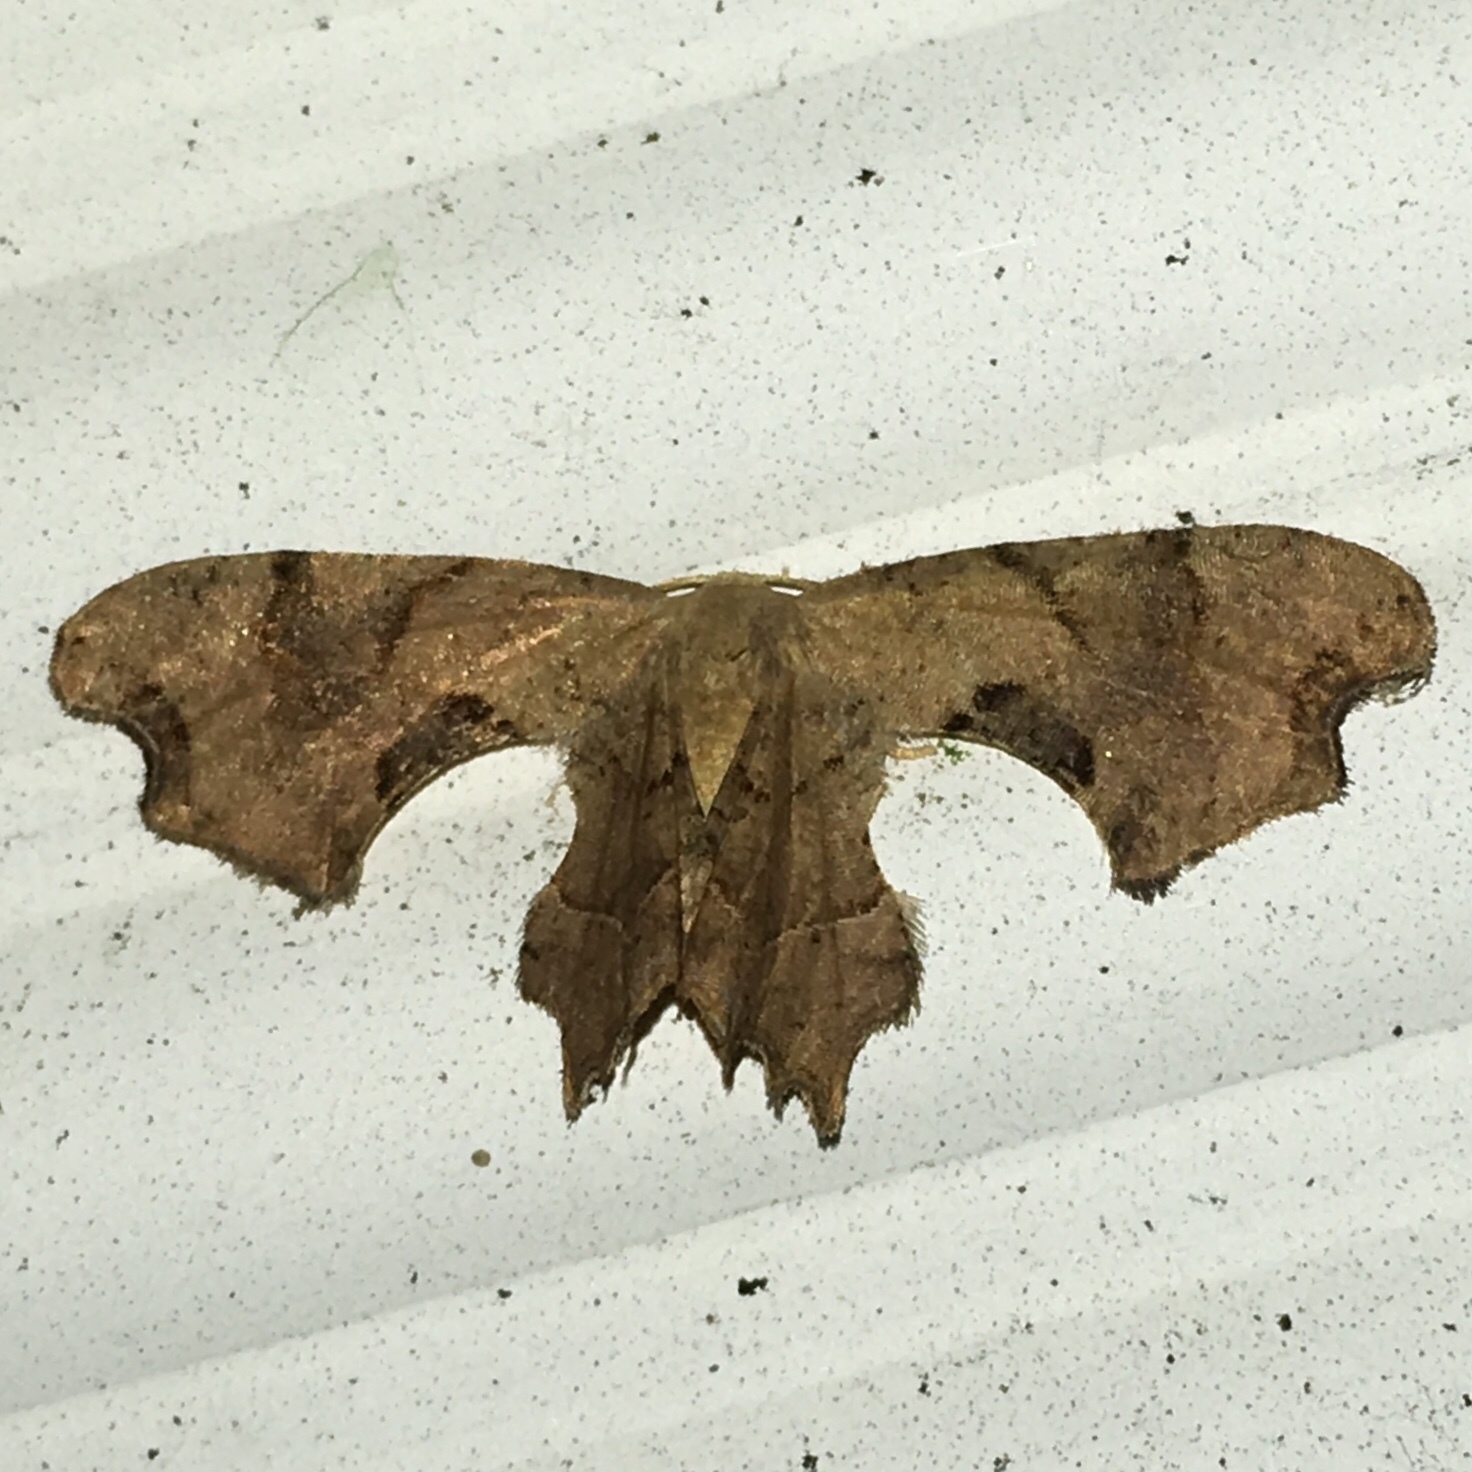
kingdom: Animalia
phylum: Arthropoda
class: Insecta
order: Lepidoptera
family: Uraniidae
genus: Epiplema
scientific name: Epiplema Calledapteryx dryopterata
